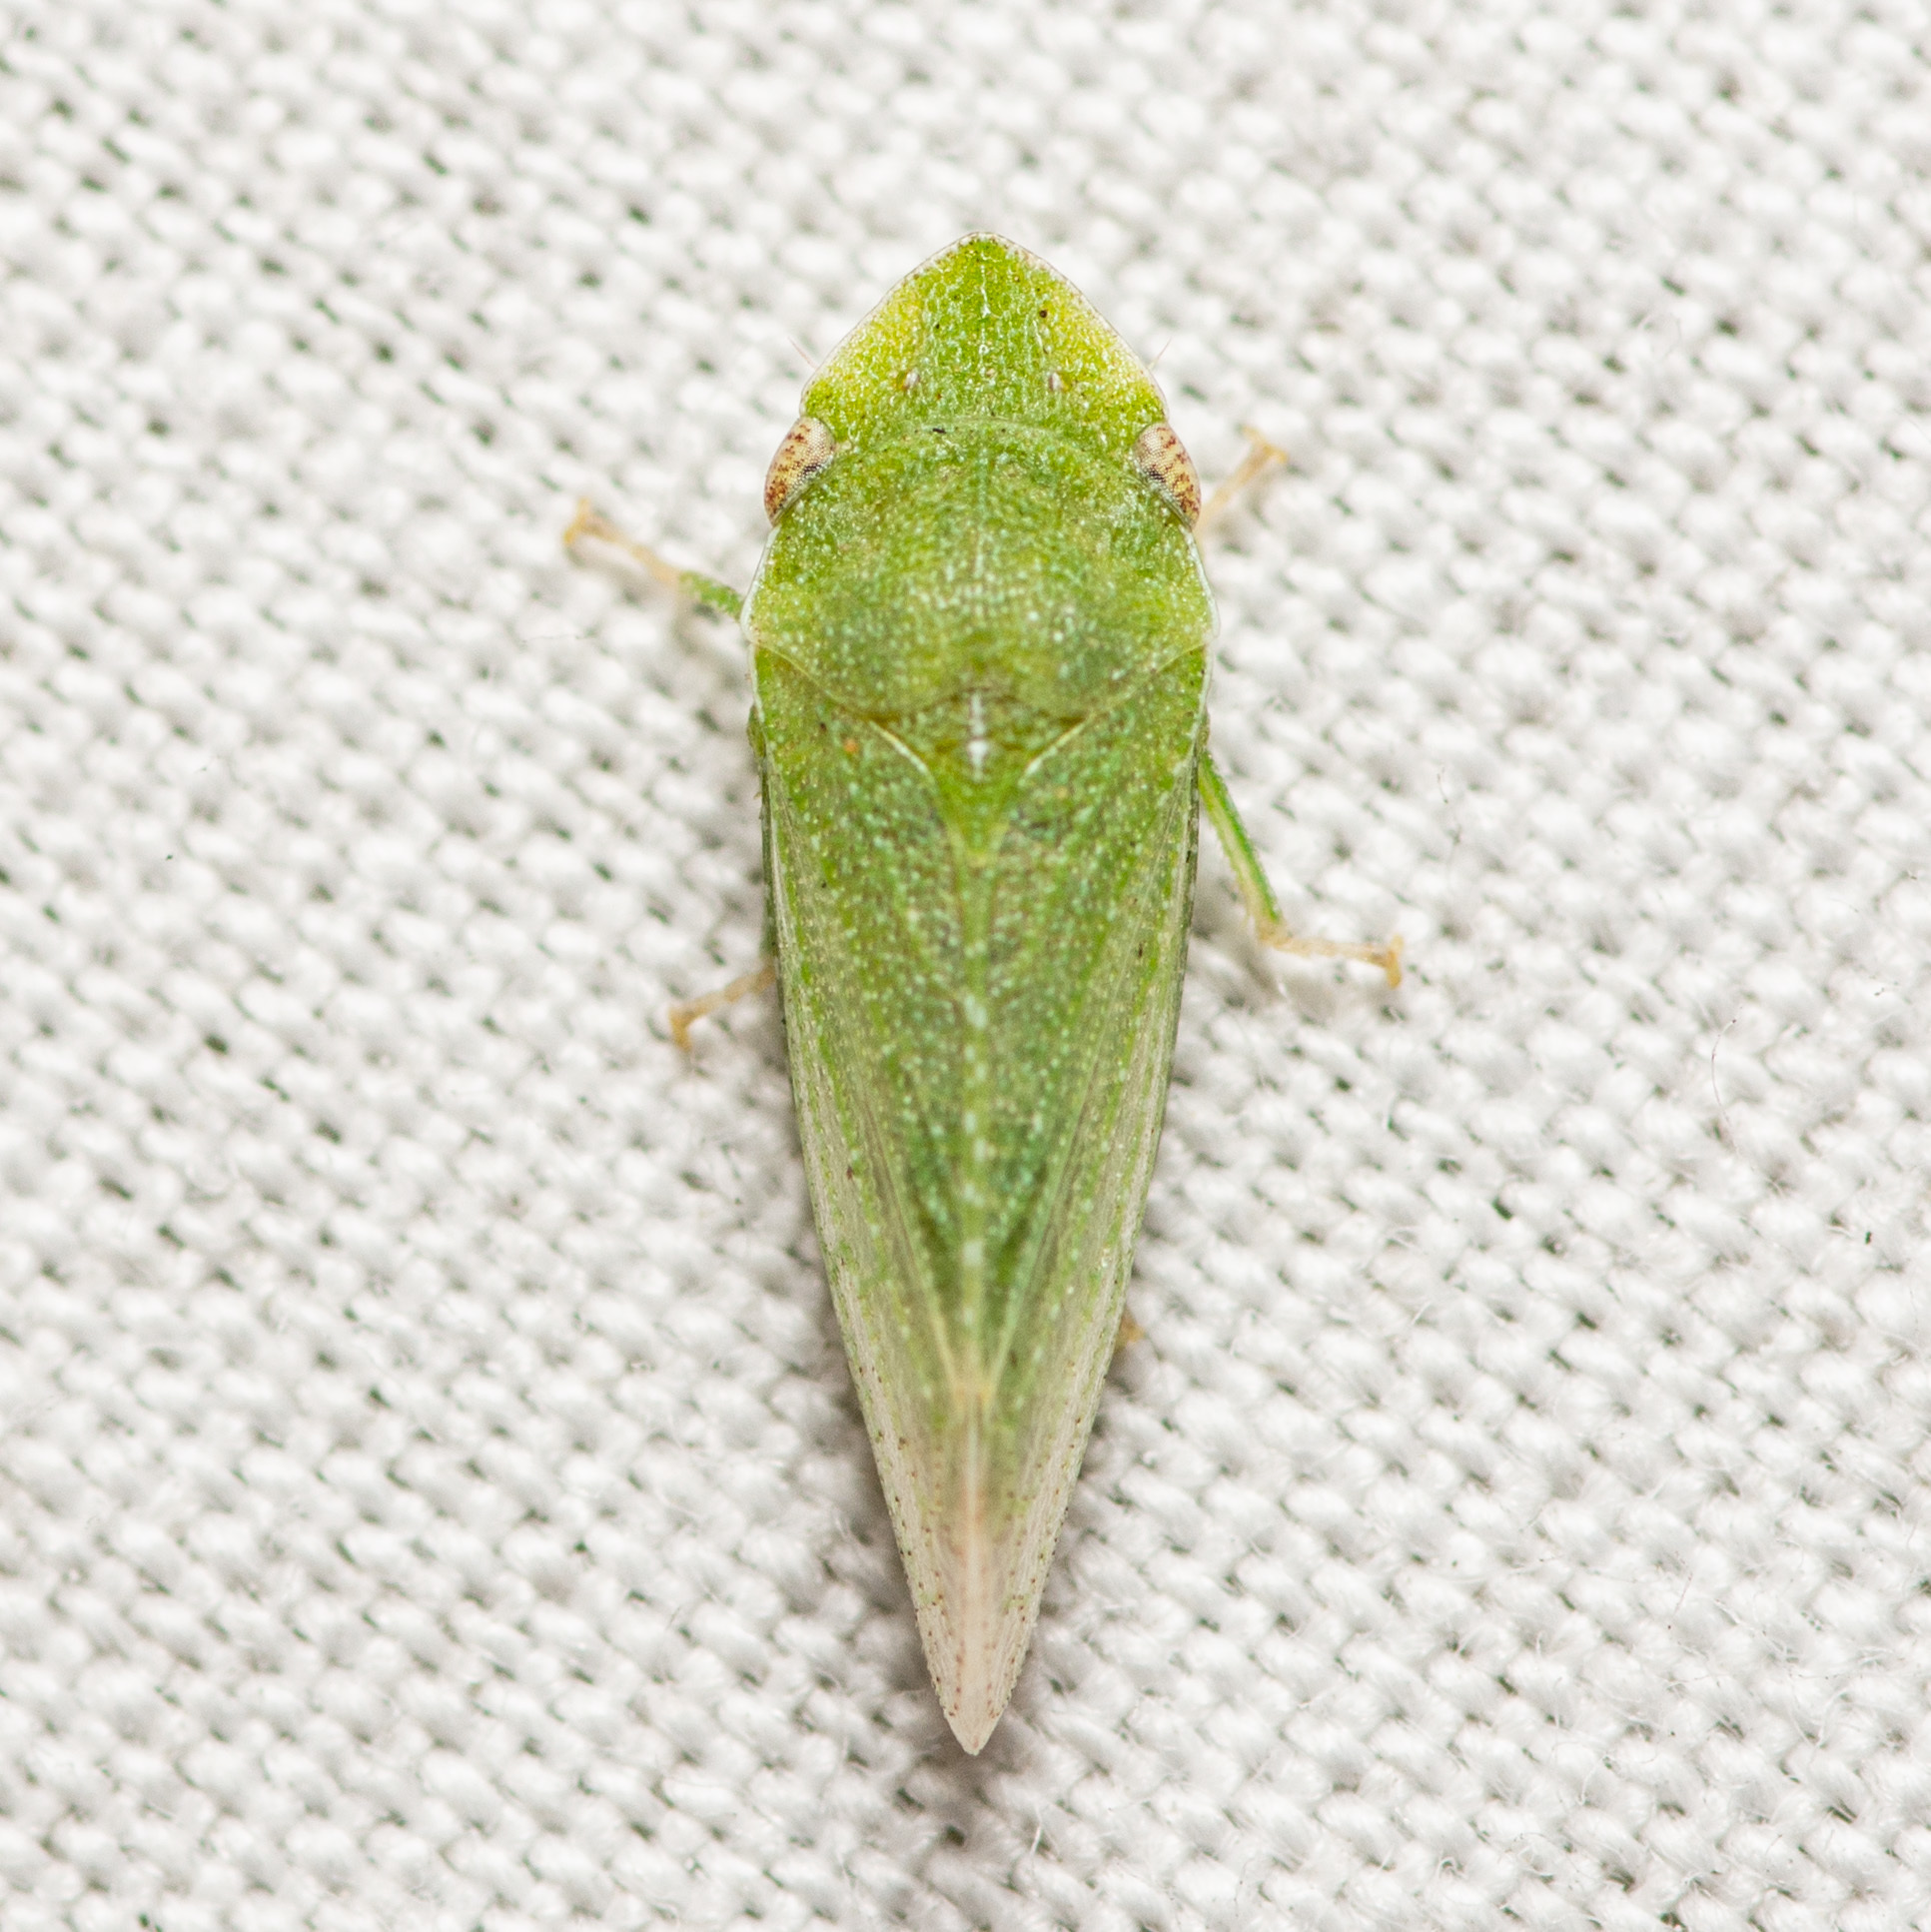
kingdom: Animalia
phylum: Arthropoda
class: Insecta
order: Hemiptera
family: Cicadellidae
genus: Xerophloea
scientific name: Xerophloea peltata
